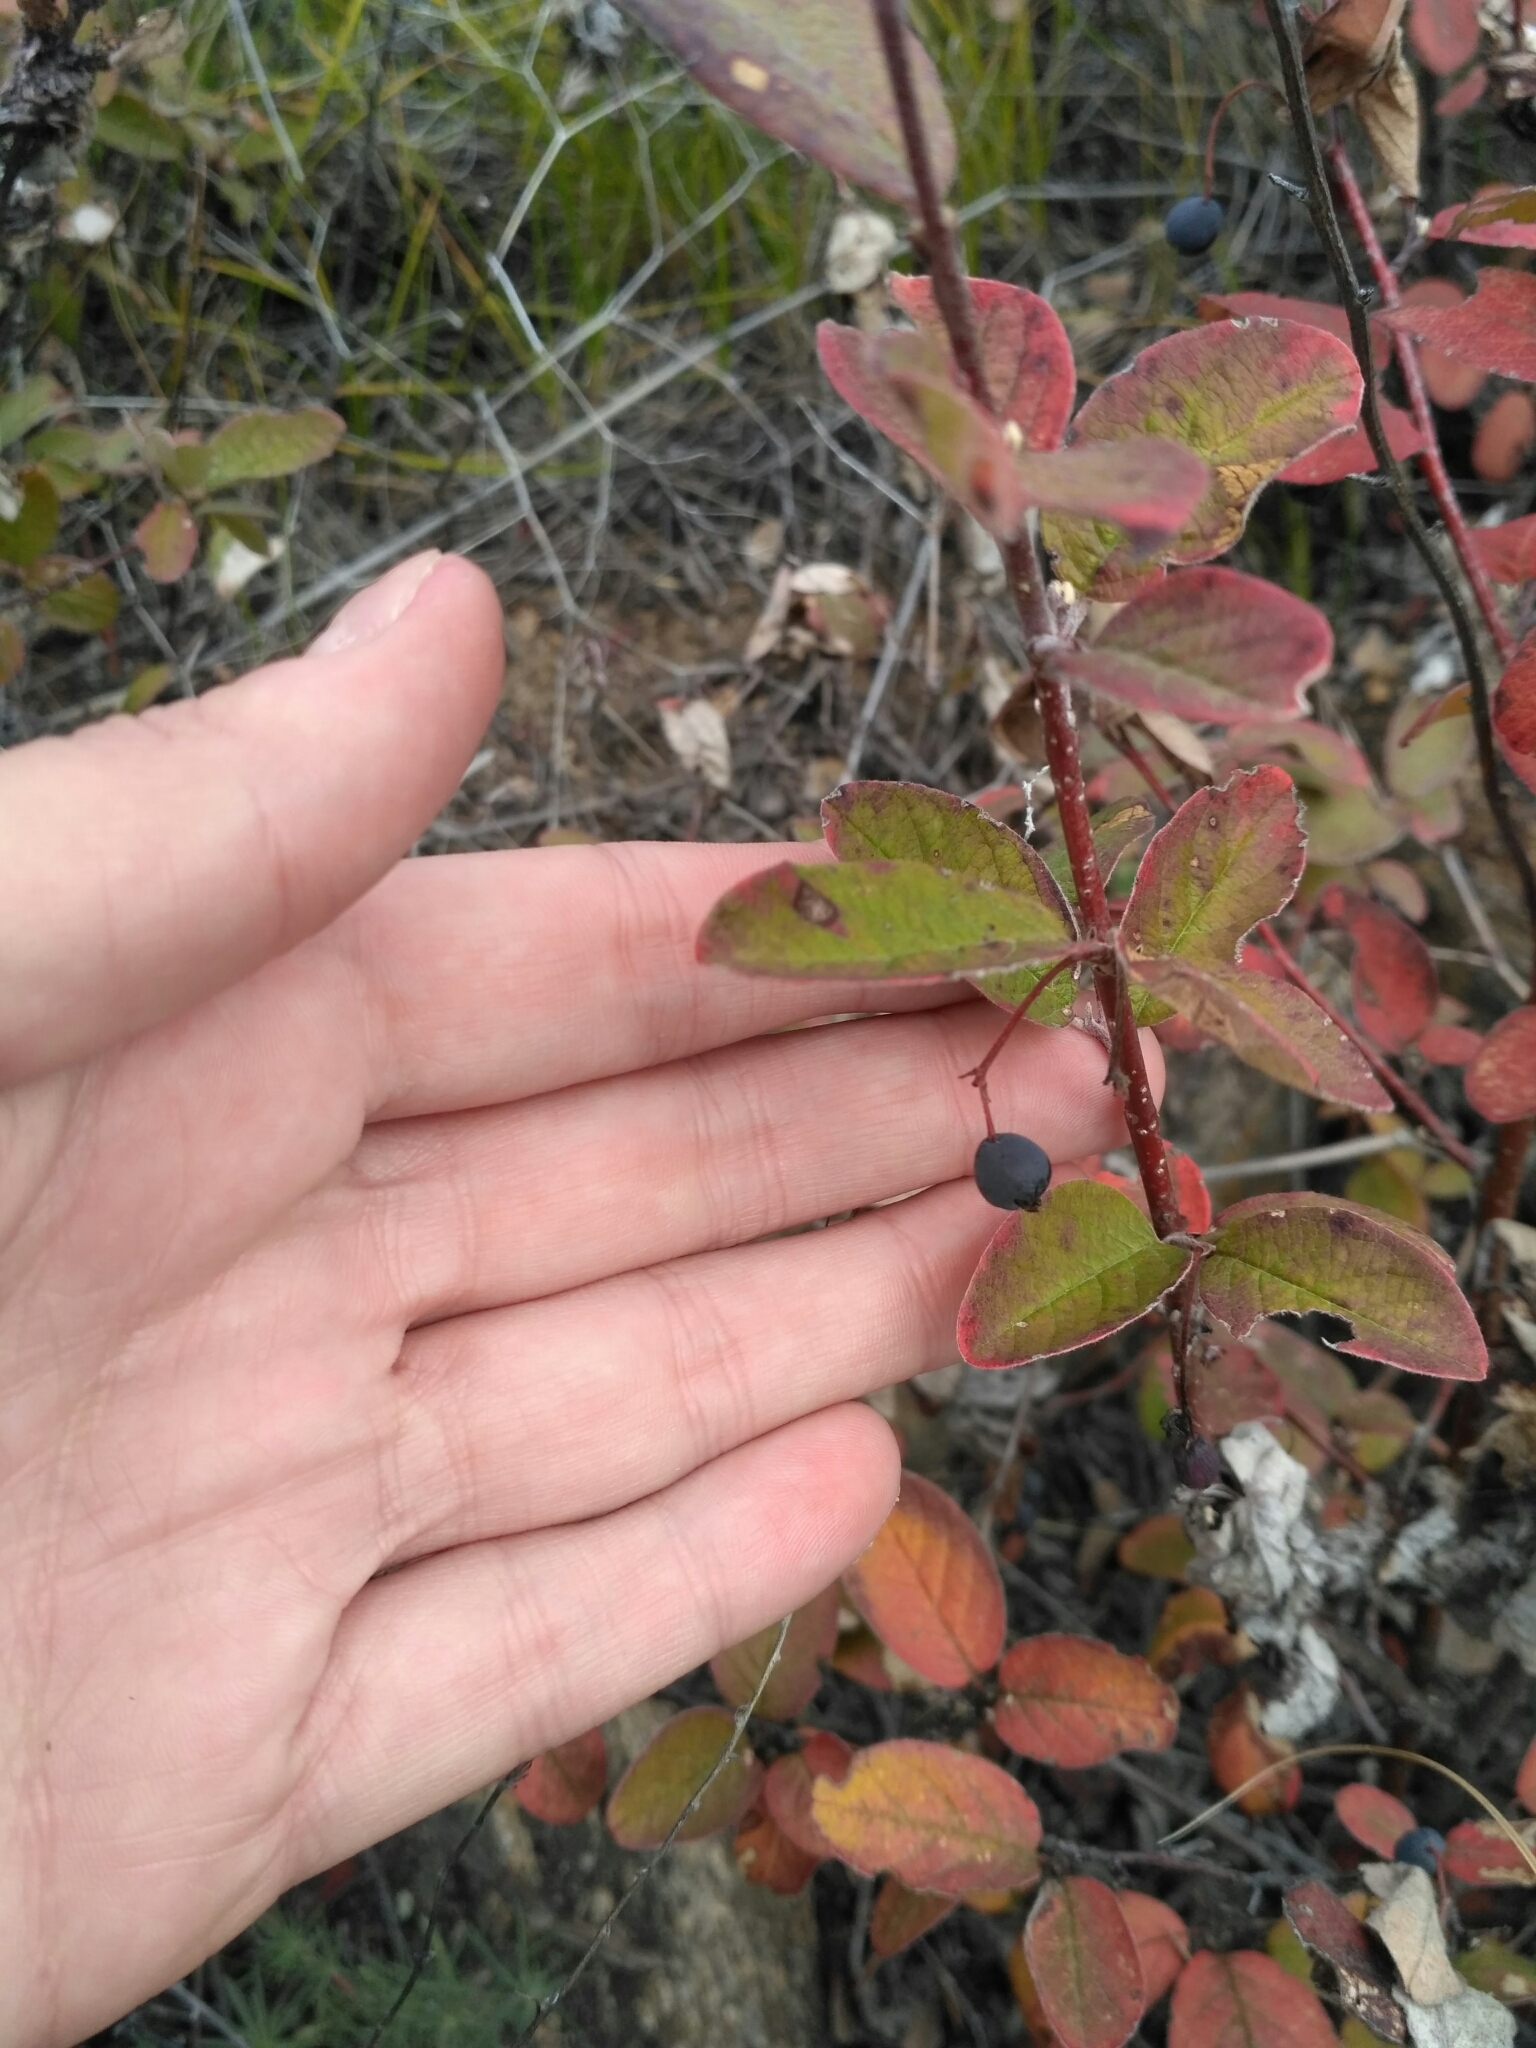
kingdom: Plantae
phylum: Tracheophyta
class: Magnoliopsida
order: Rosales
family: Rosaceae
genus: Cotoneaster
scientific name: Cotoneaster melanocarpus
